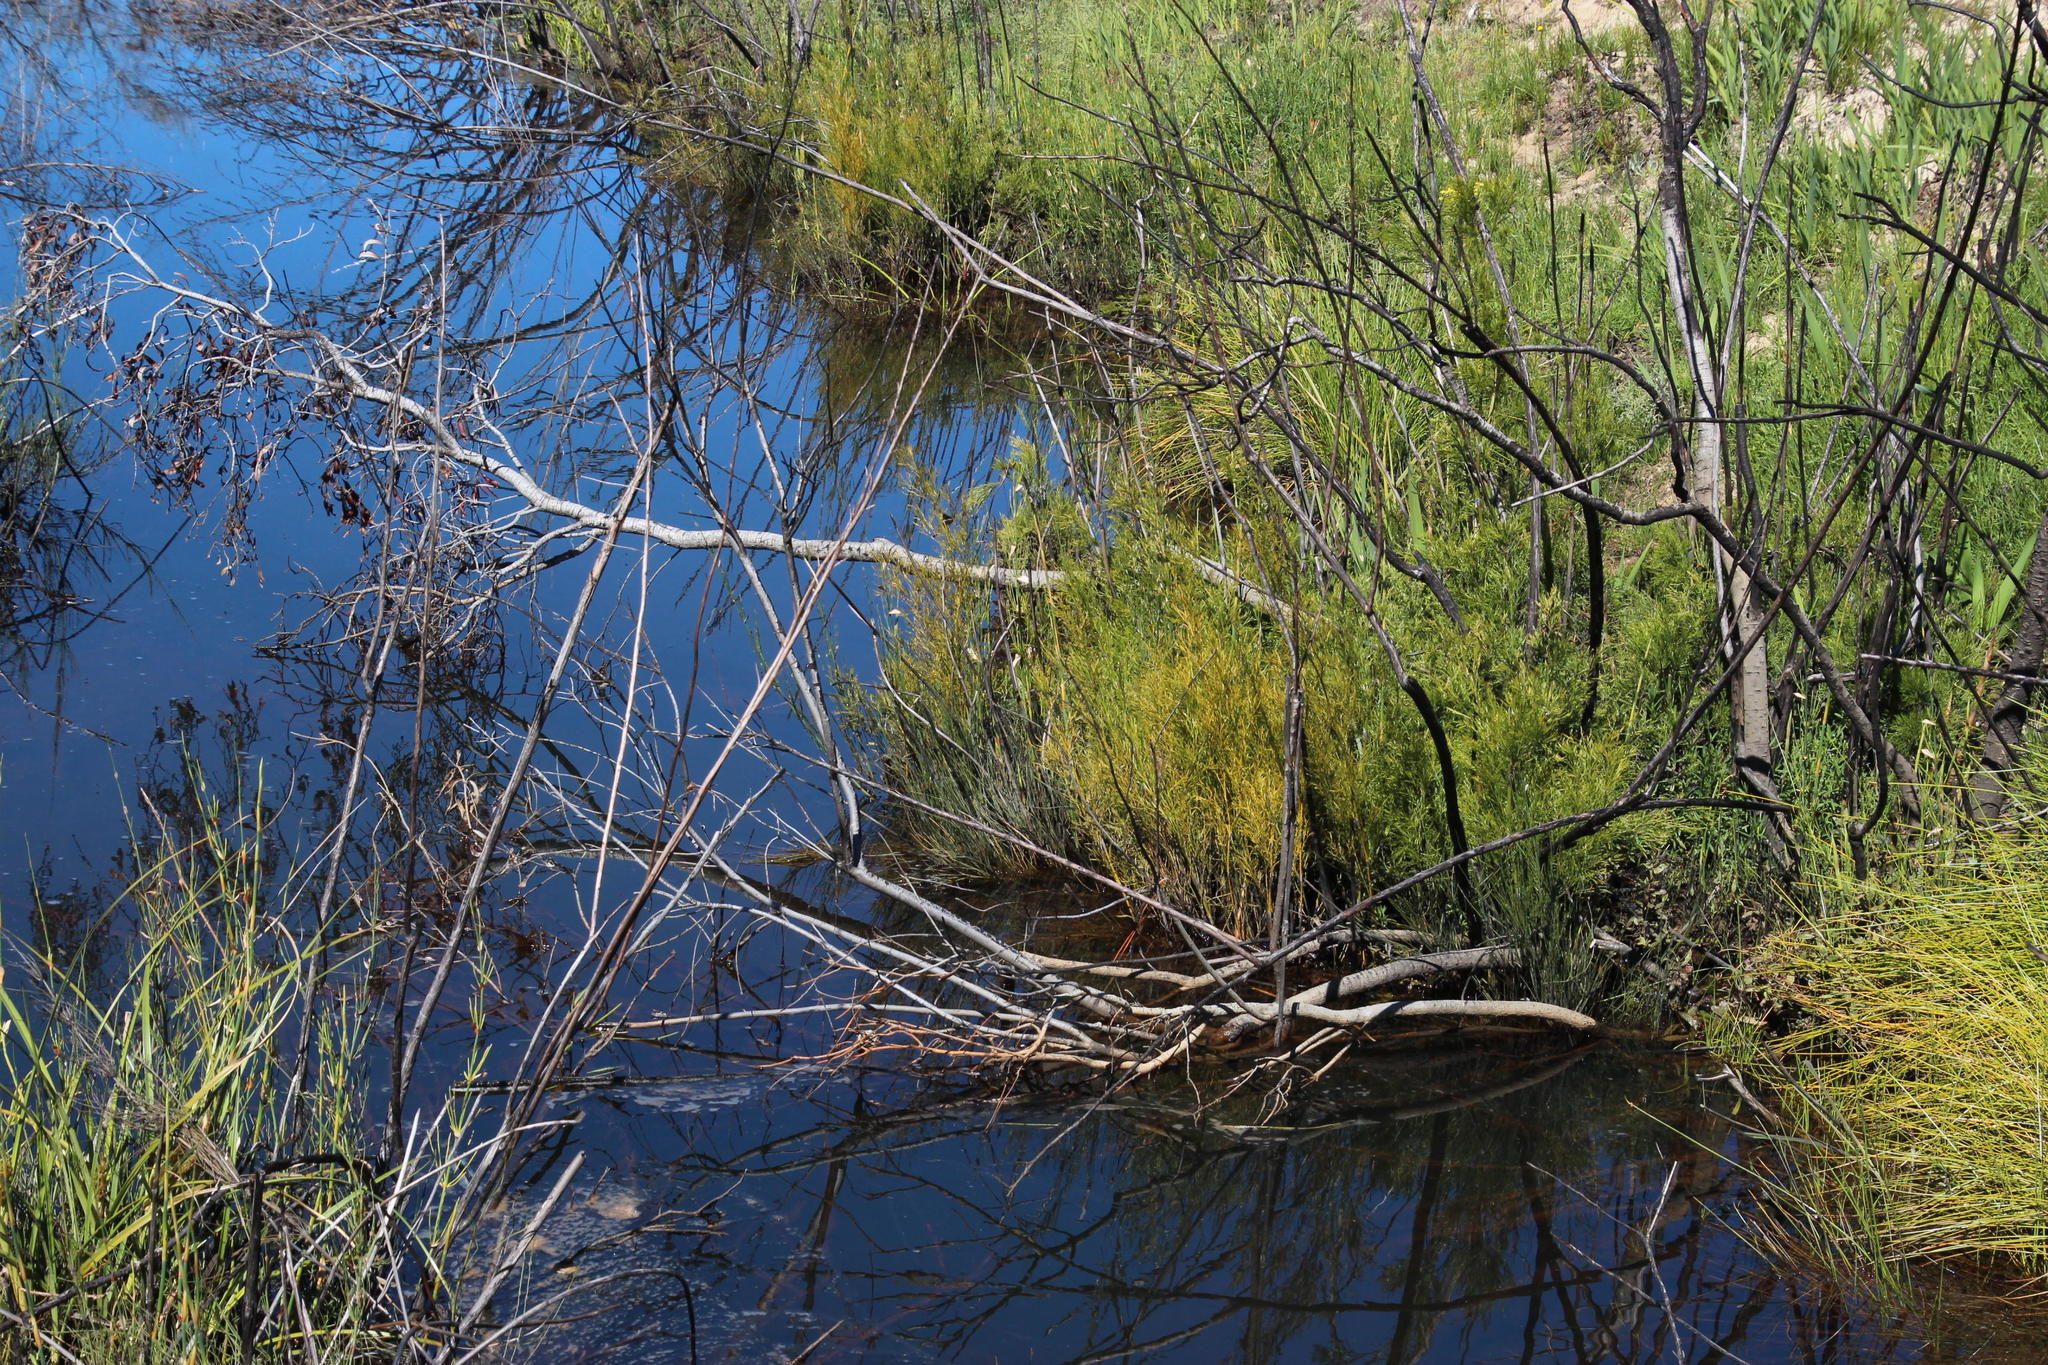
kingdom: Plantae
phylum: Tracheophyta
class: Liliopsida
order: Poales
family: Restionaceae
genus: Elegia
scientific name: Elegia capensis
